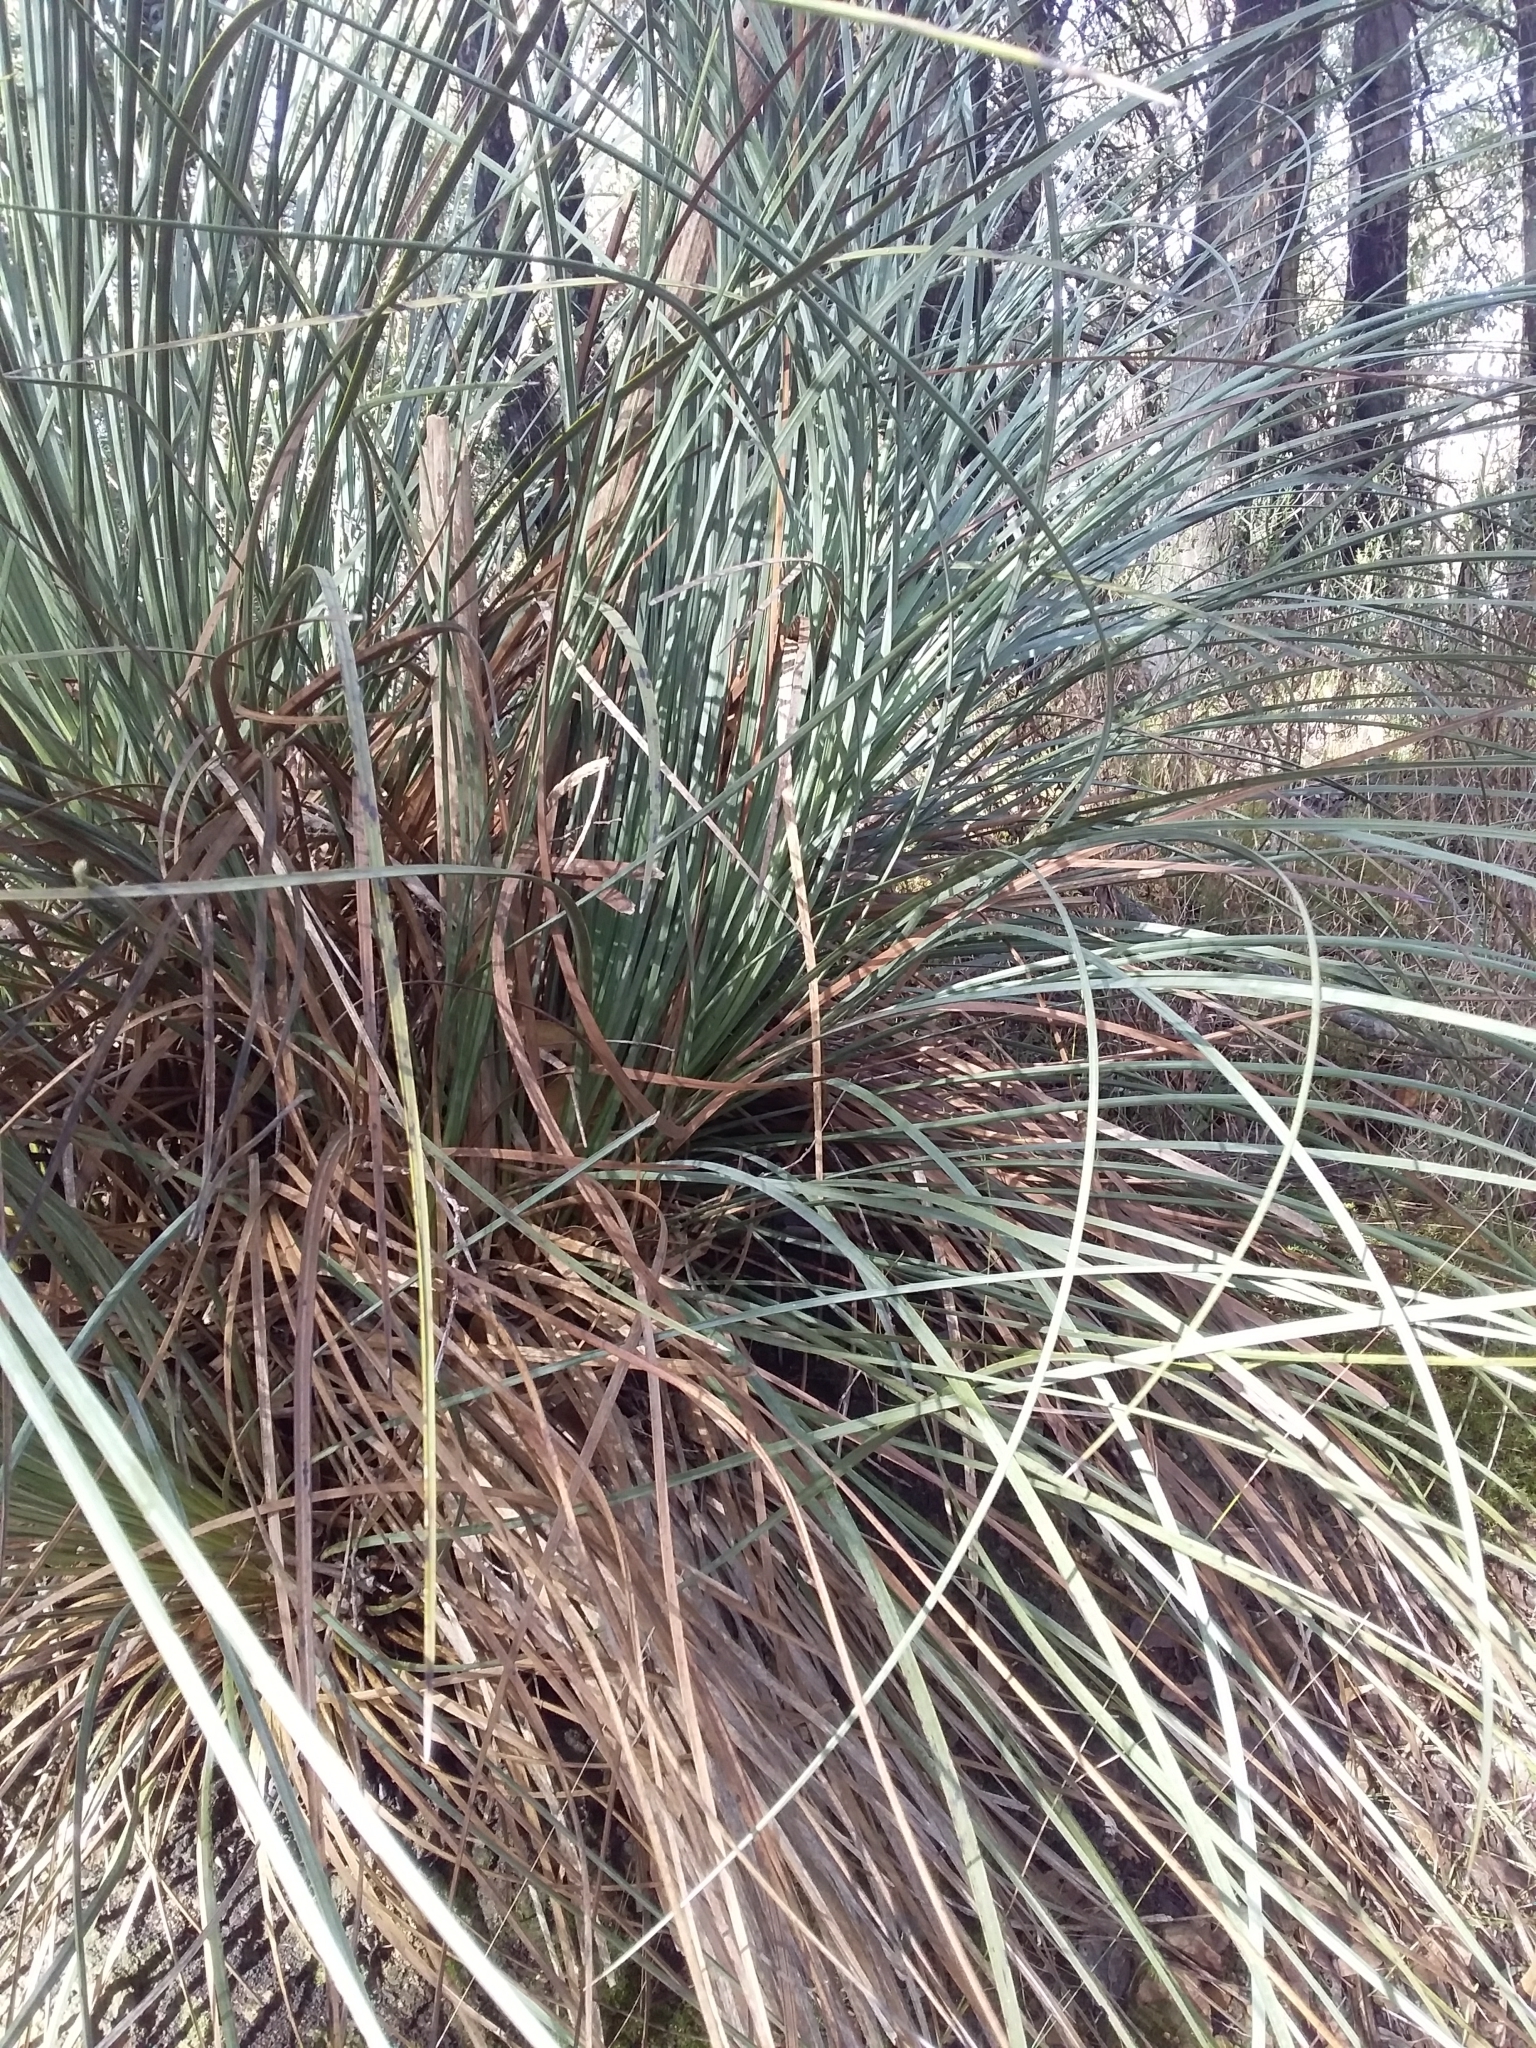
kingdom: Plantae
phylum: Tracheophyta
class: Liliopsida
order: Asparagales
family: Asphodelaceae
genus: Xanthorrhoea
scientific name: Xanthorrhoea semiplana
